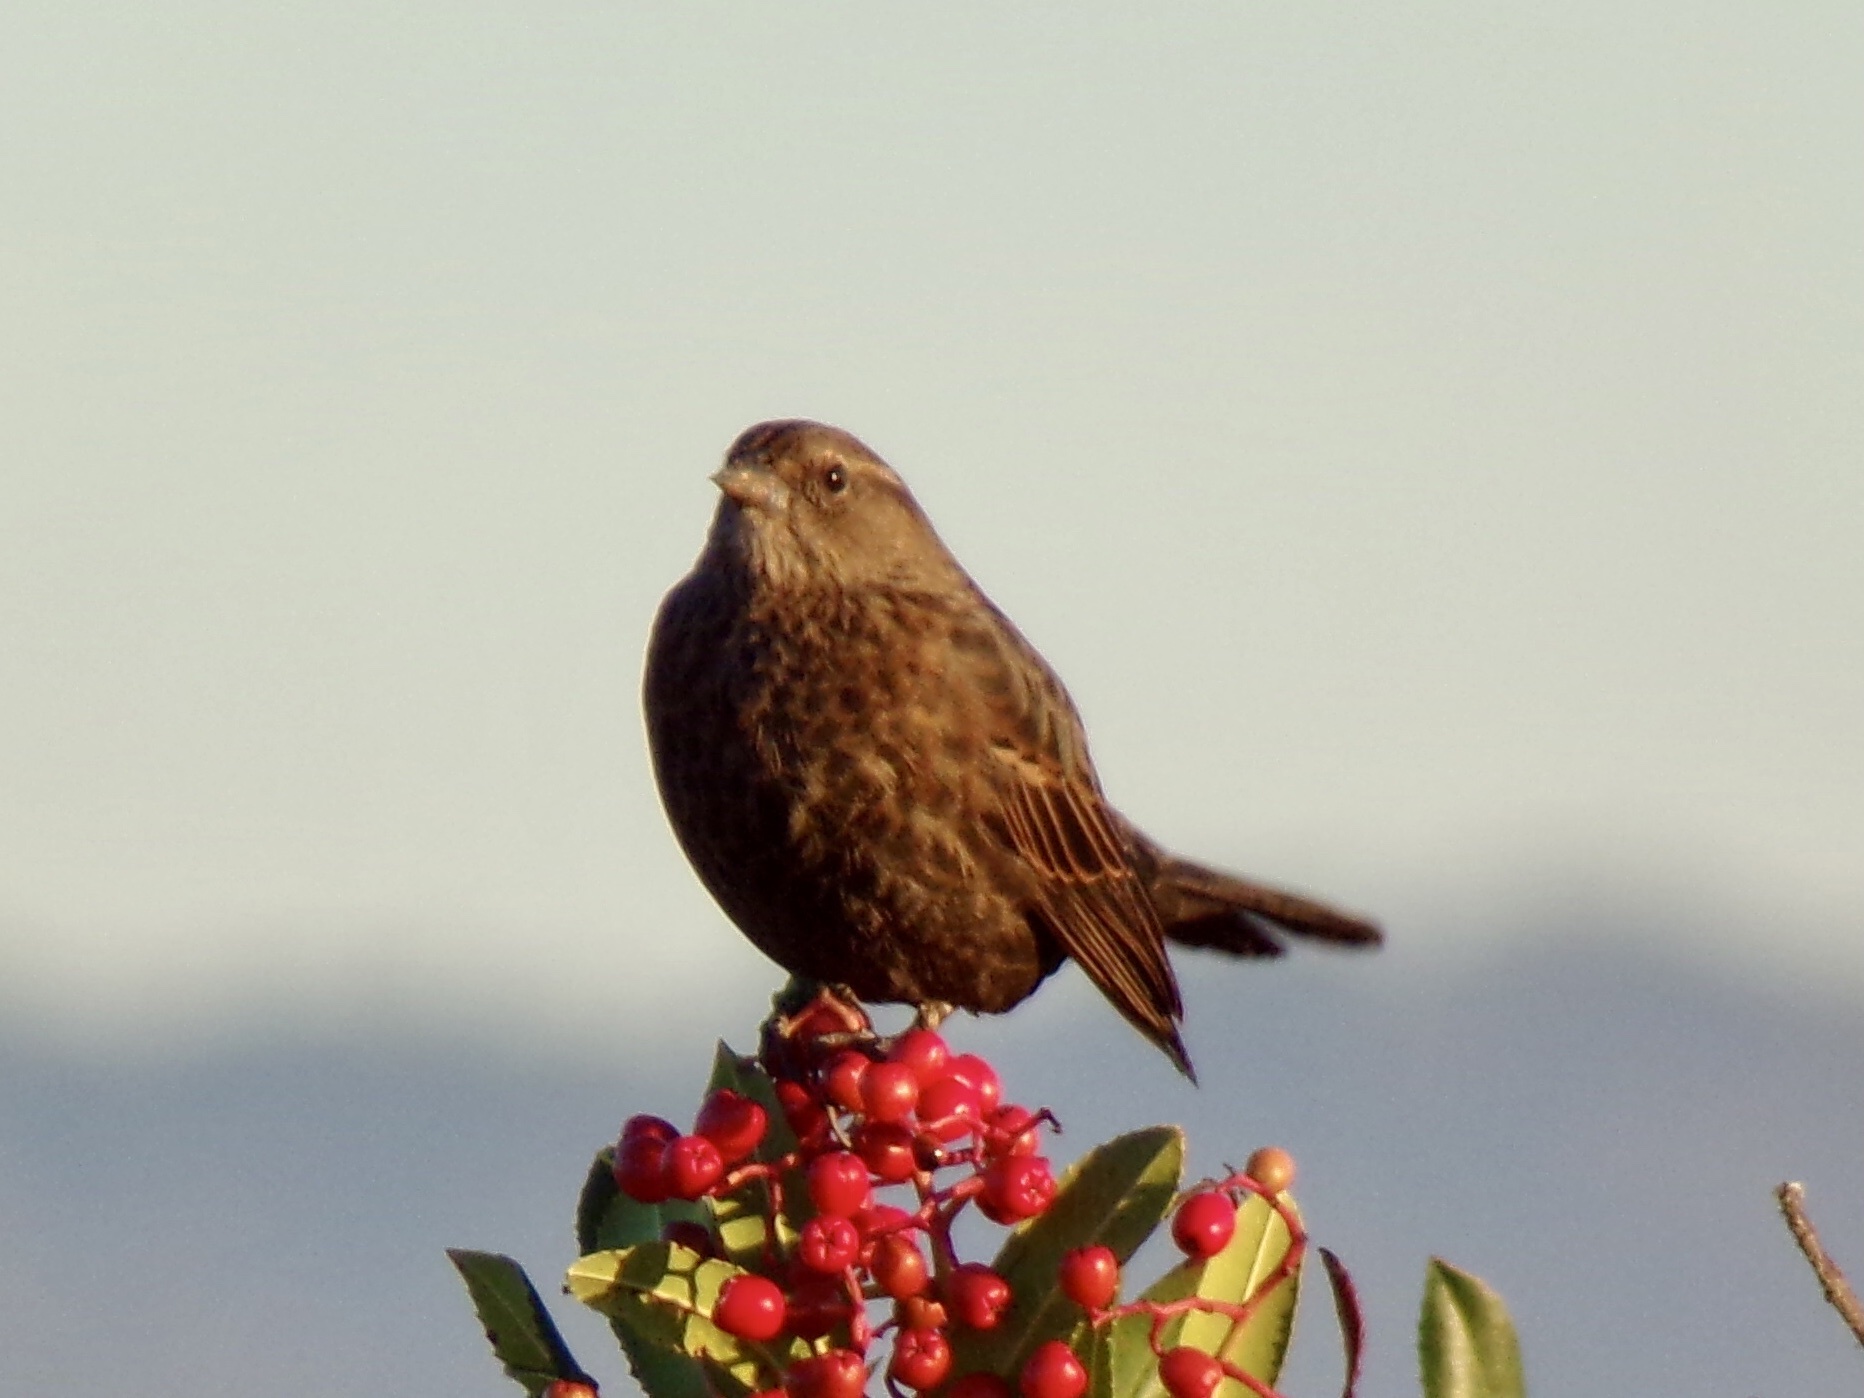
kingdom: Animalia
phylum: Chordata
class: Aves
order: Passeriformes
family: Icteridae
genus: Agelaius
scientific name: Agelaius tricolor
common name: Tricolored blackbird
